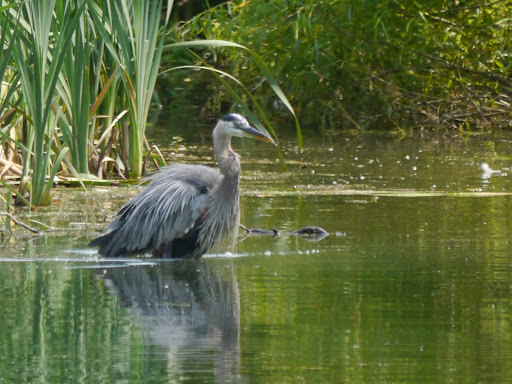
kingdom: Animalia
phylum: Chordata
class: Aves
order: Pelecaniformes
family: Ardeidae
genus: Ardea
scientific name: Ardea herodias
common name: Great blue heron
